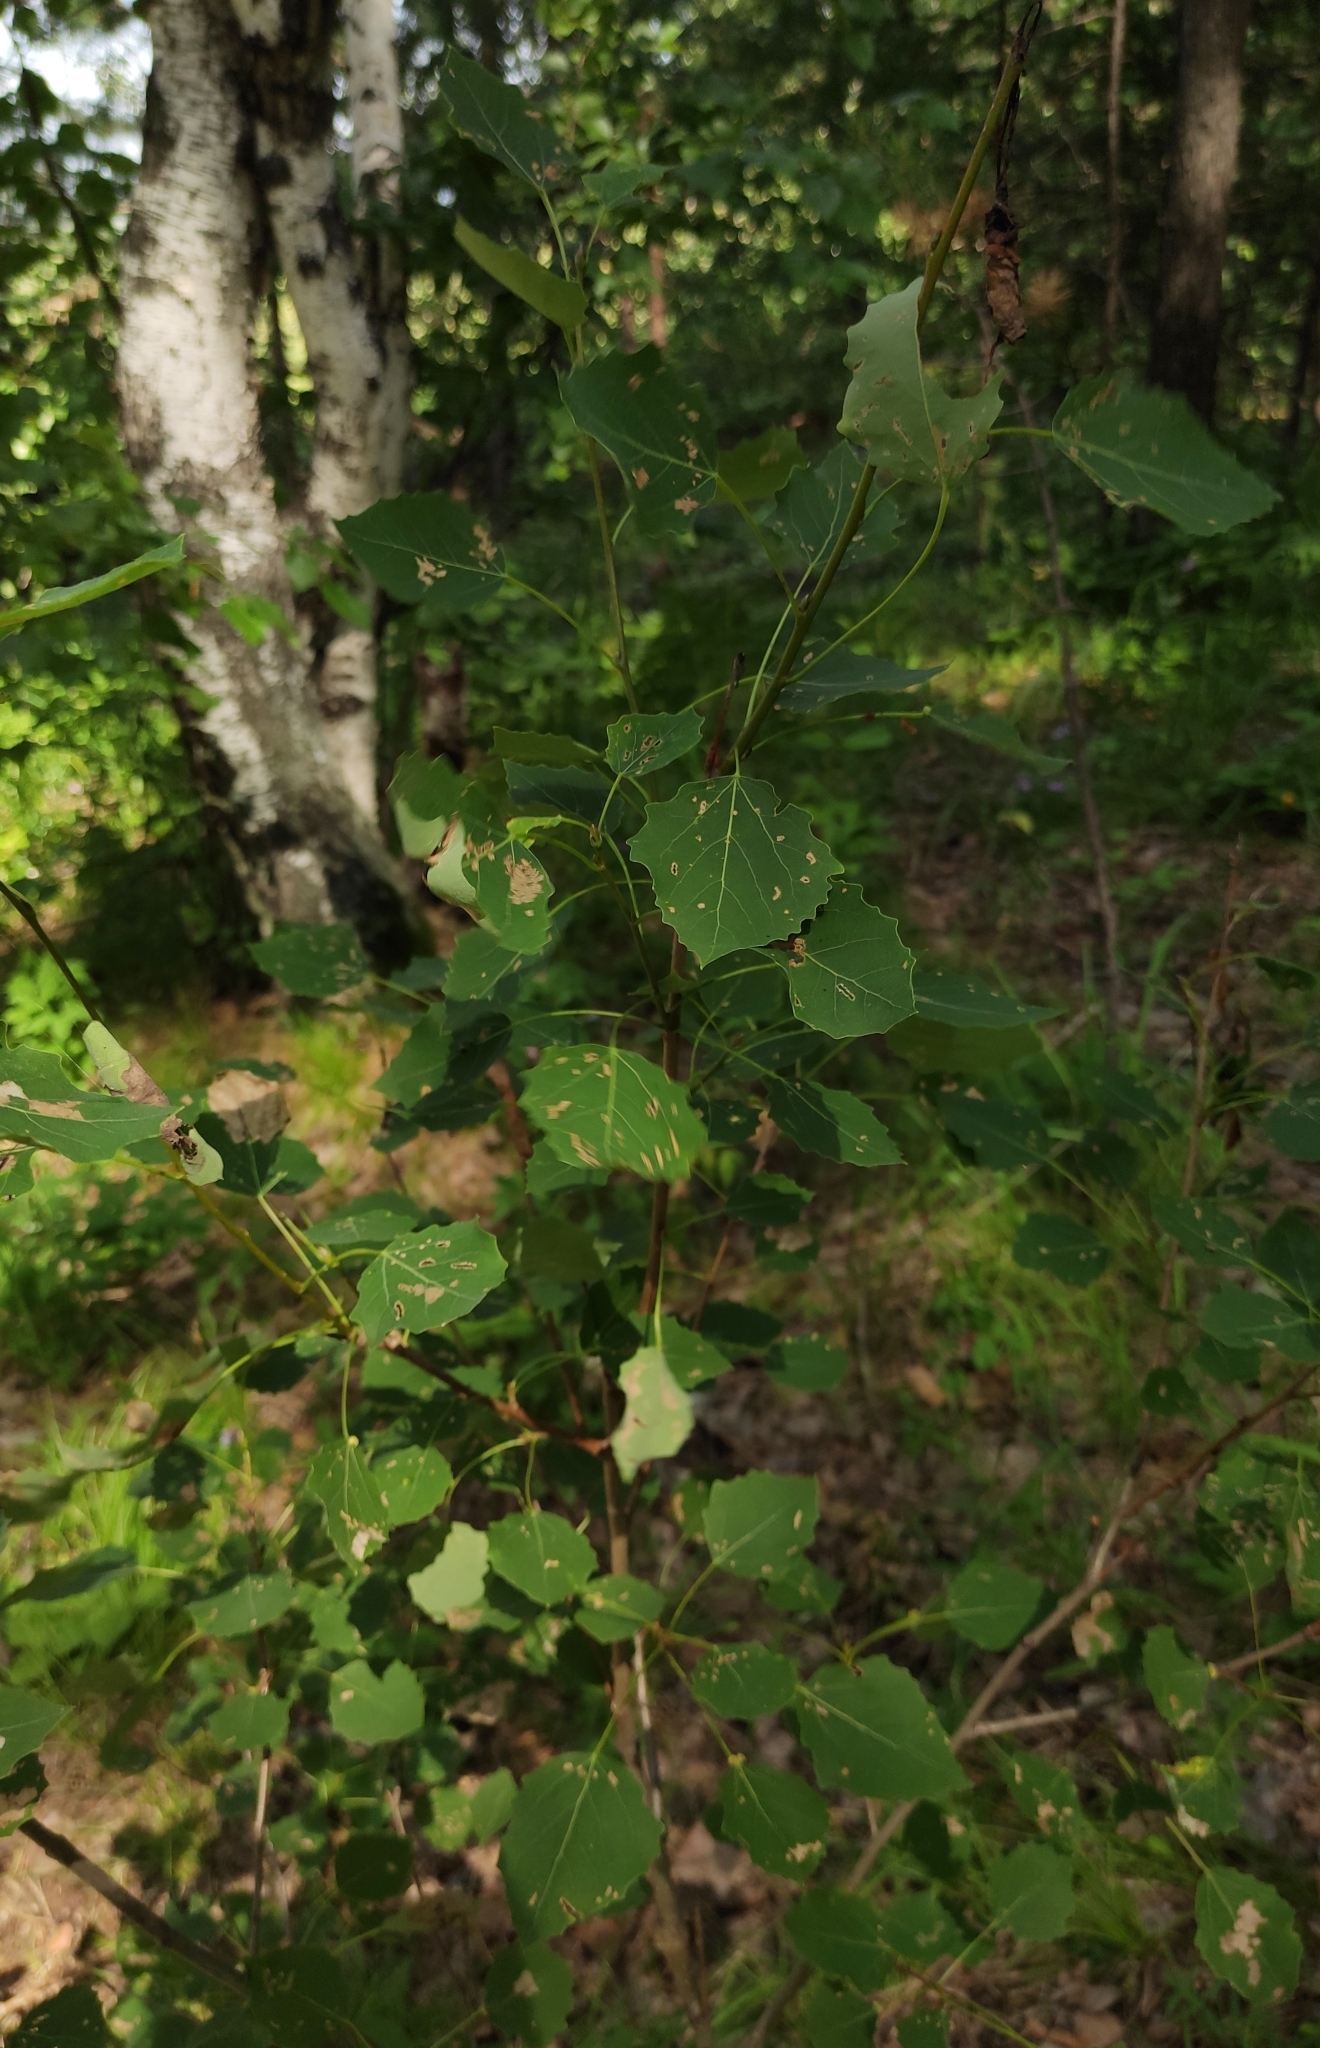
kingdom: Plantae
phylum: Tracheophyta
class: Magnoliopsida
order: Malpighiales
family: Salicaceae
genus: Populus
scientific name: Populus tremula
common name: European aspen
